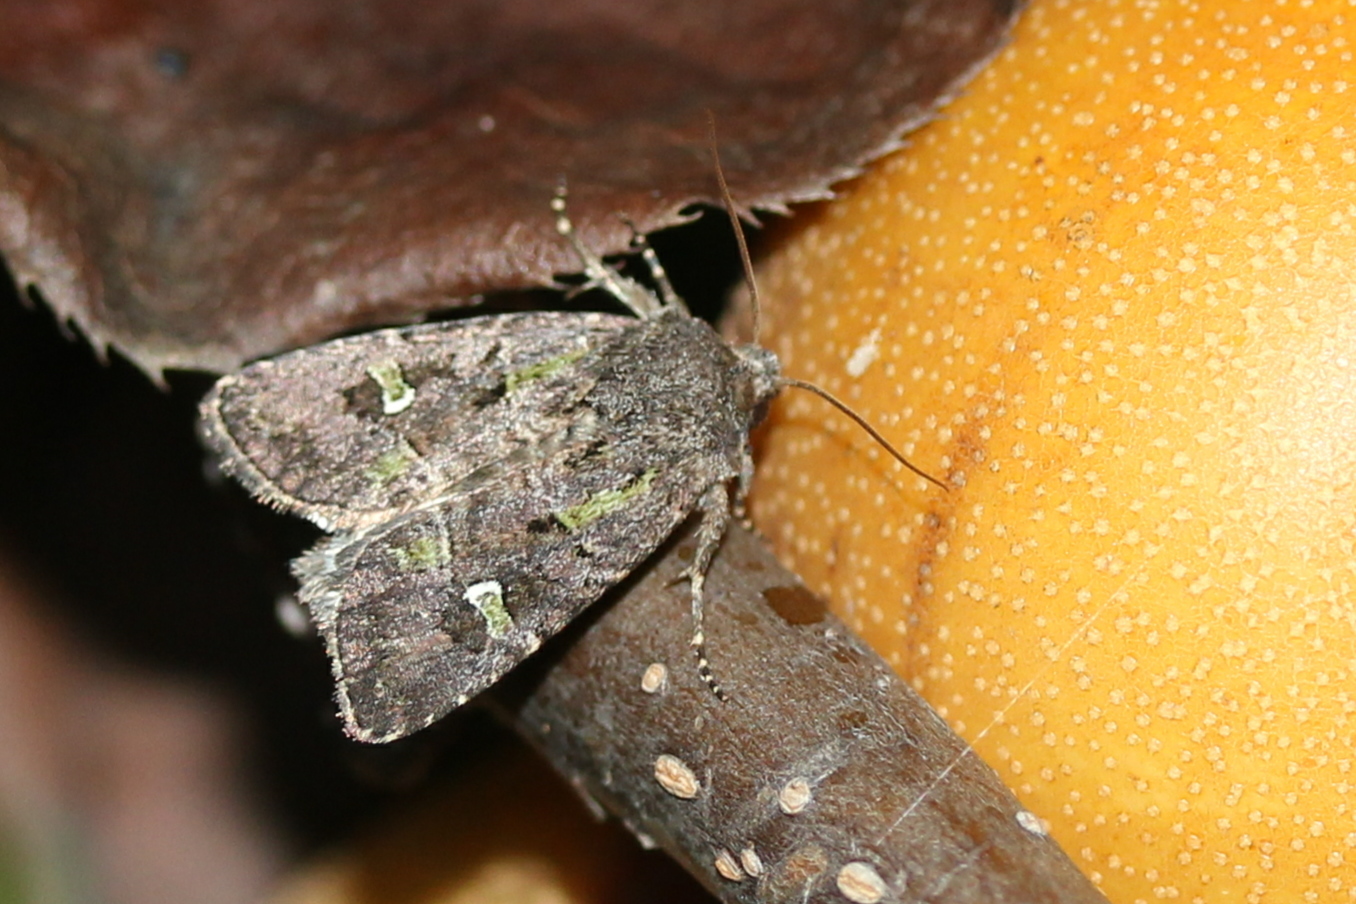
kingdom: Animalia
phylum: Arthropoda
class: Insecta
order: Lepidoptera
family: Noctuidae
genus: Lacinipolia
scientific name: Lacinipolia renigera
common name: Kidney-spotted minor
